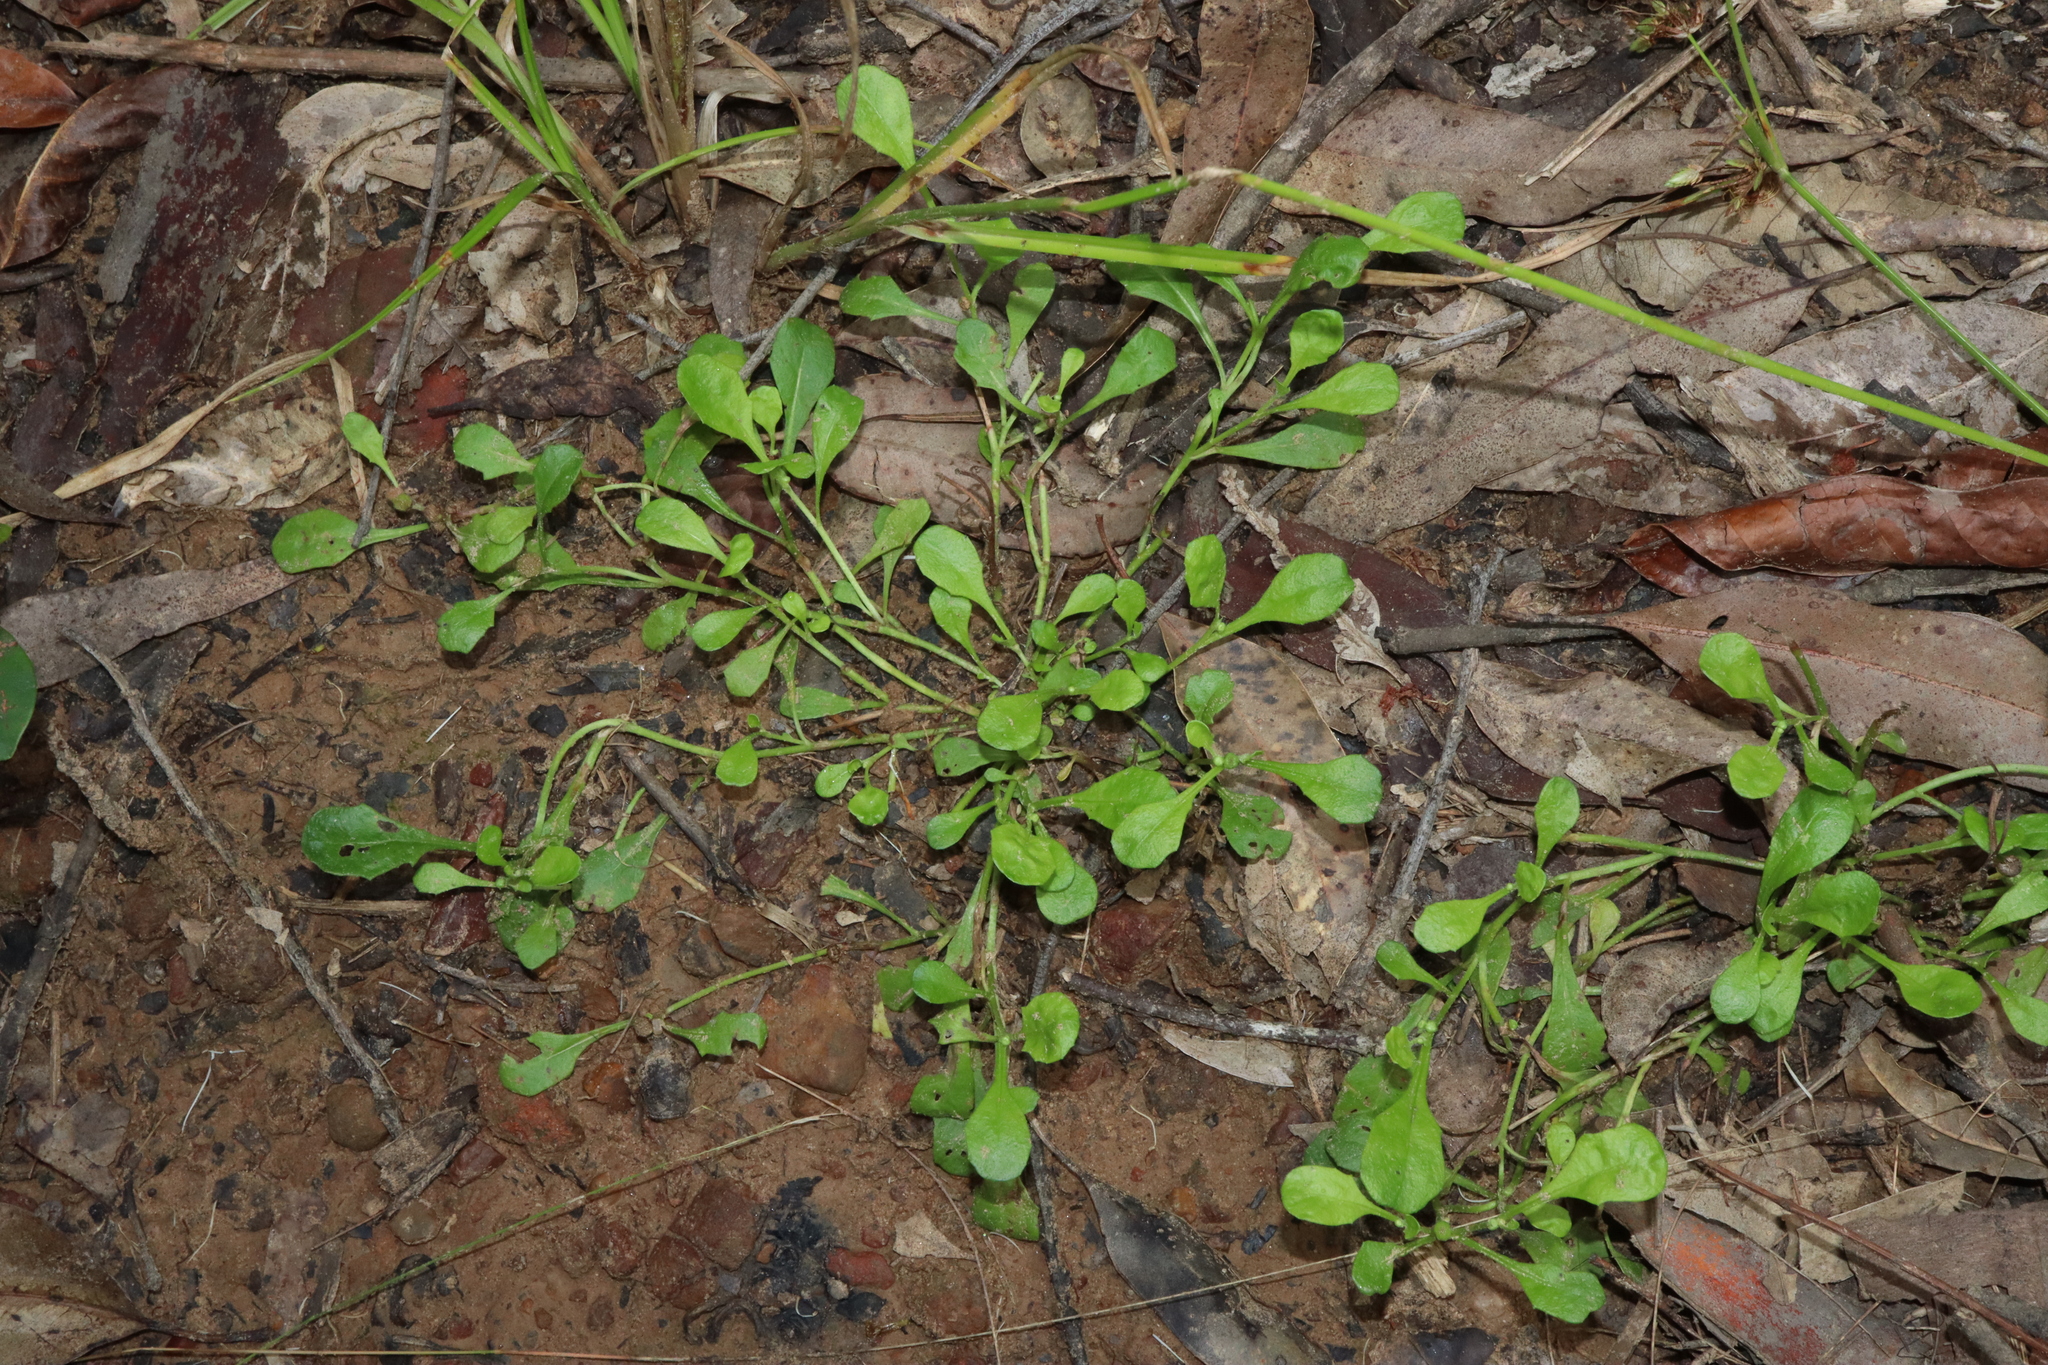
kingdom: Plantae
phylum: Tracheophyta
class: Magnoliopsida
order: Asterales
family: Asteraceae
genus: Sphaeromorphaea
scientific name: Sphaeromorphaea australis
